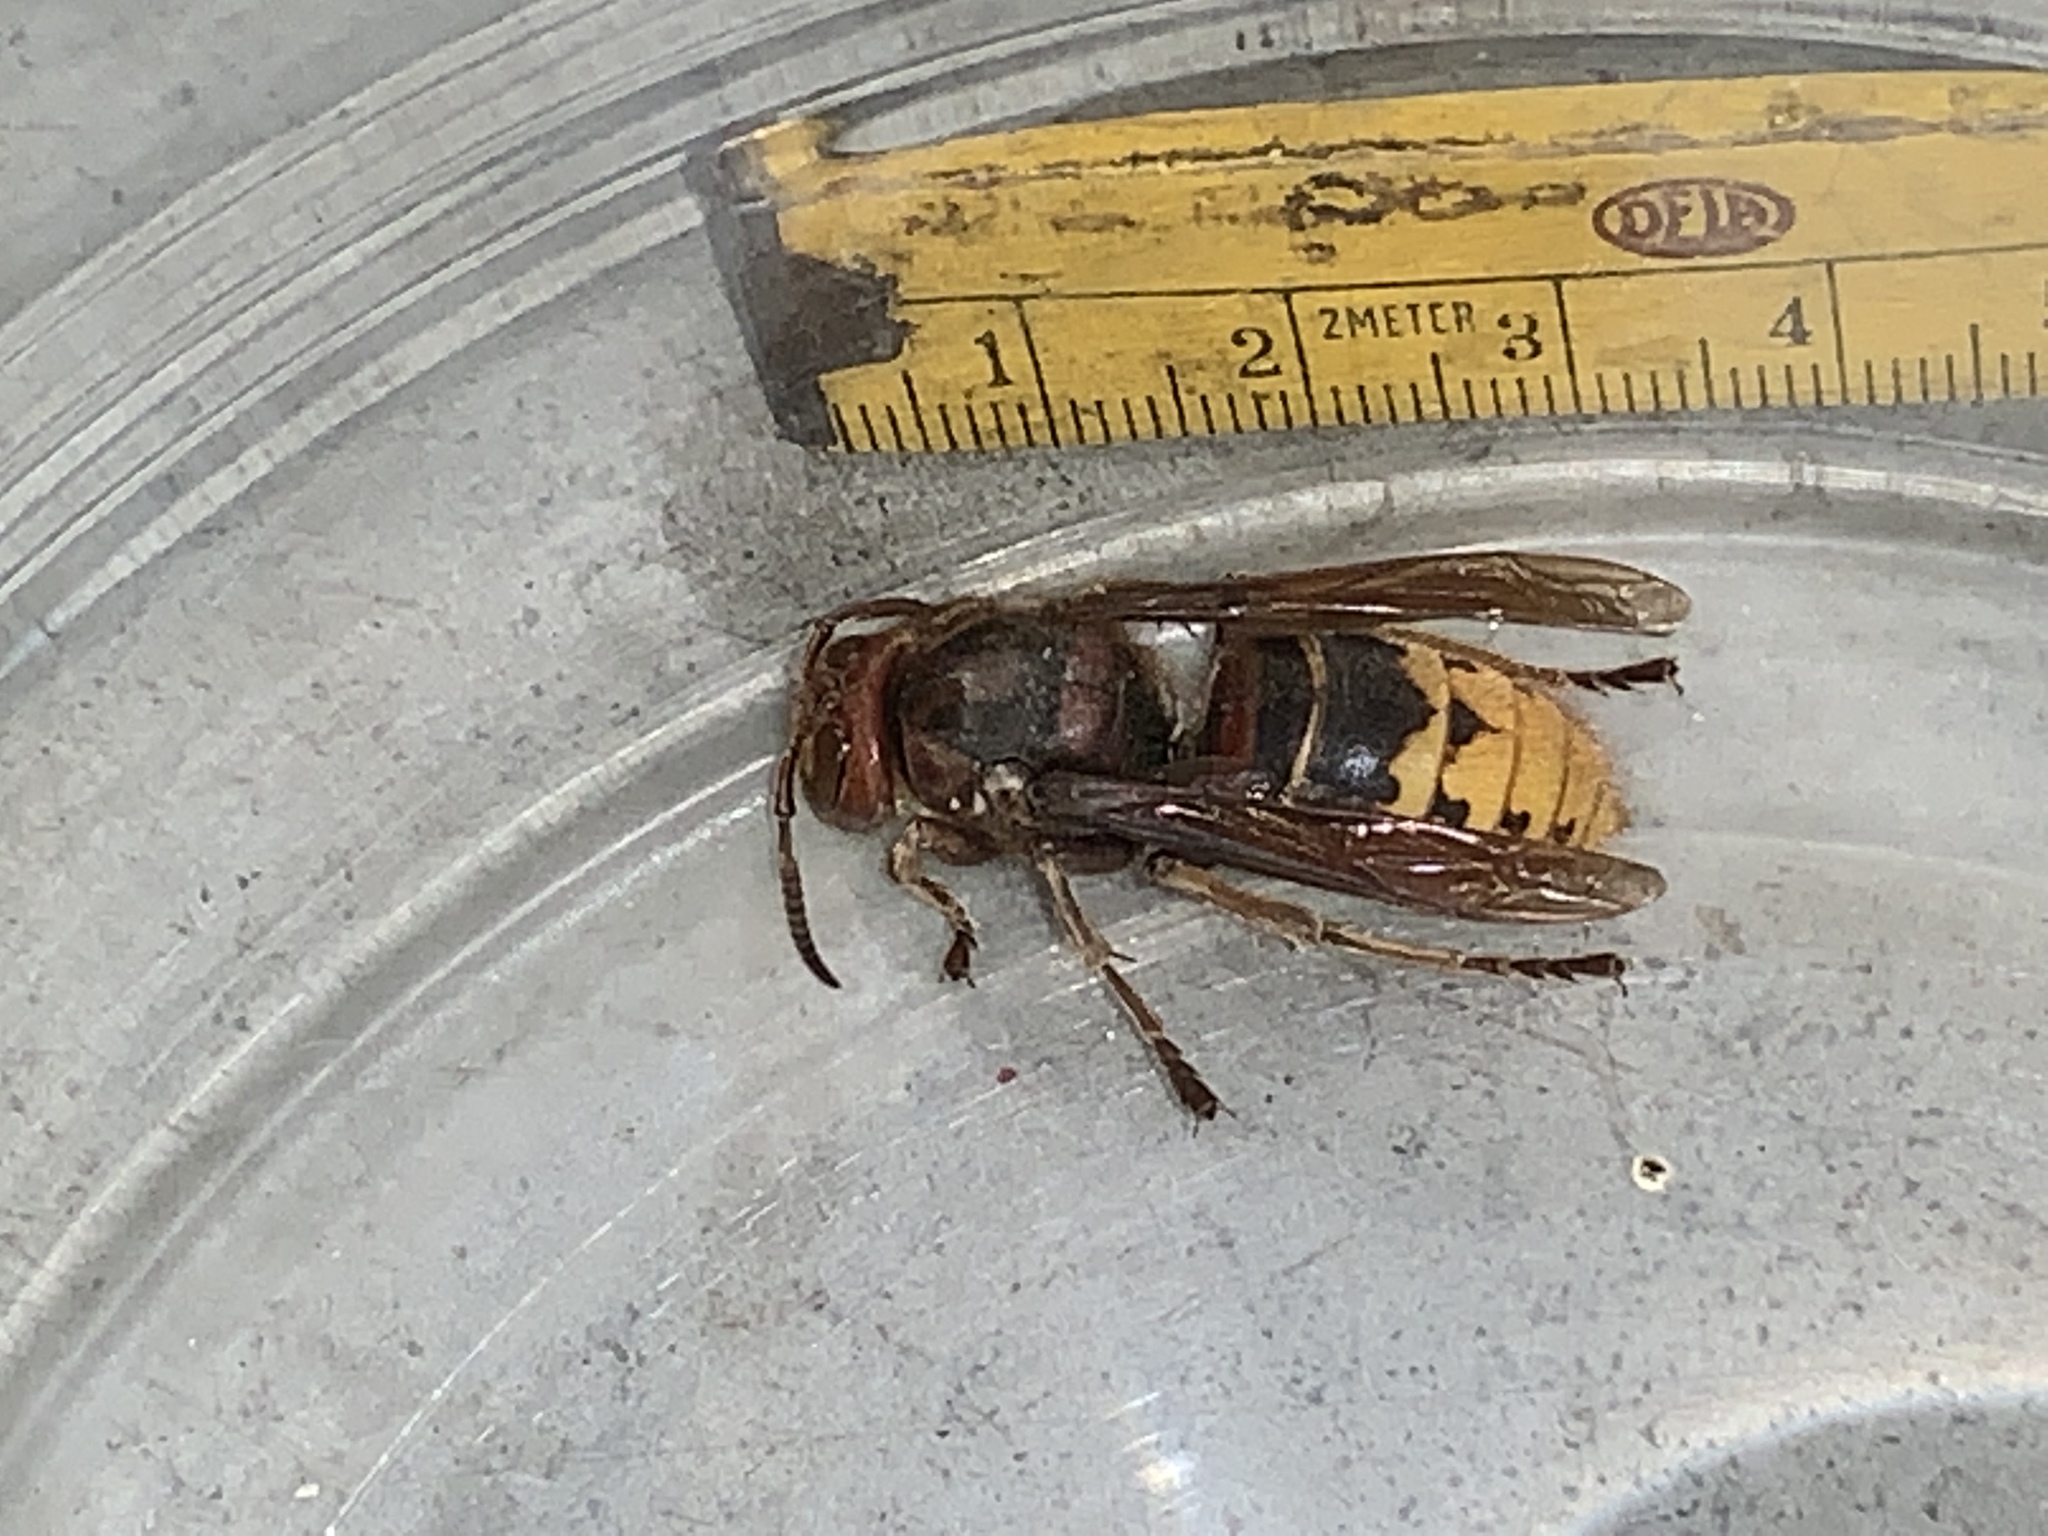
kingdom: Animalia
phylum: Arthropoda
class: Insecta
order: Hymenoptera
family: Vespidae
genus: Vespa
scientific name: Vespa crabro
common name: Hornet
